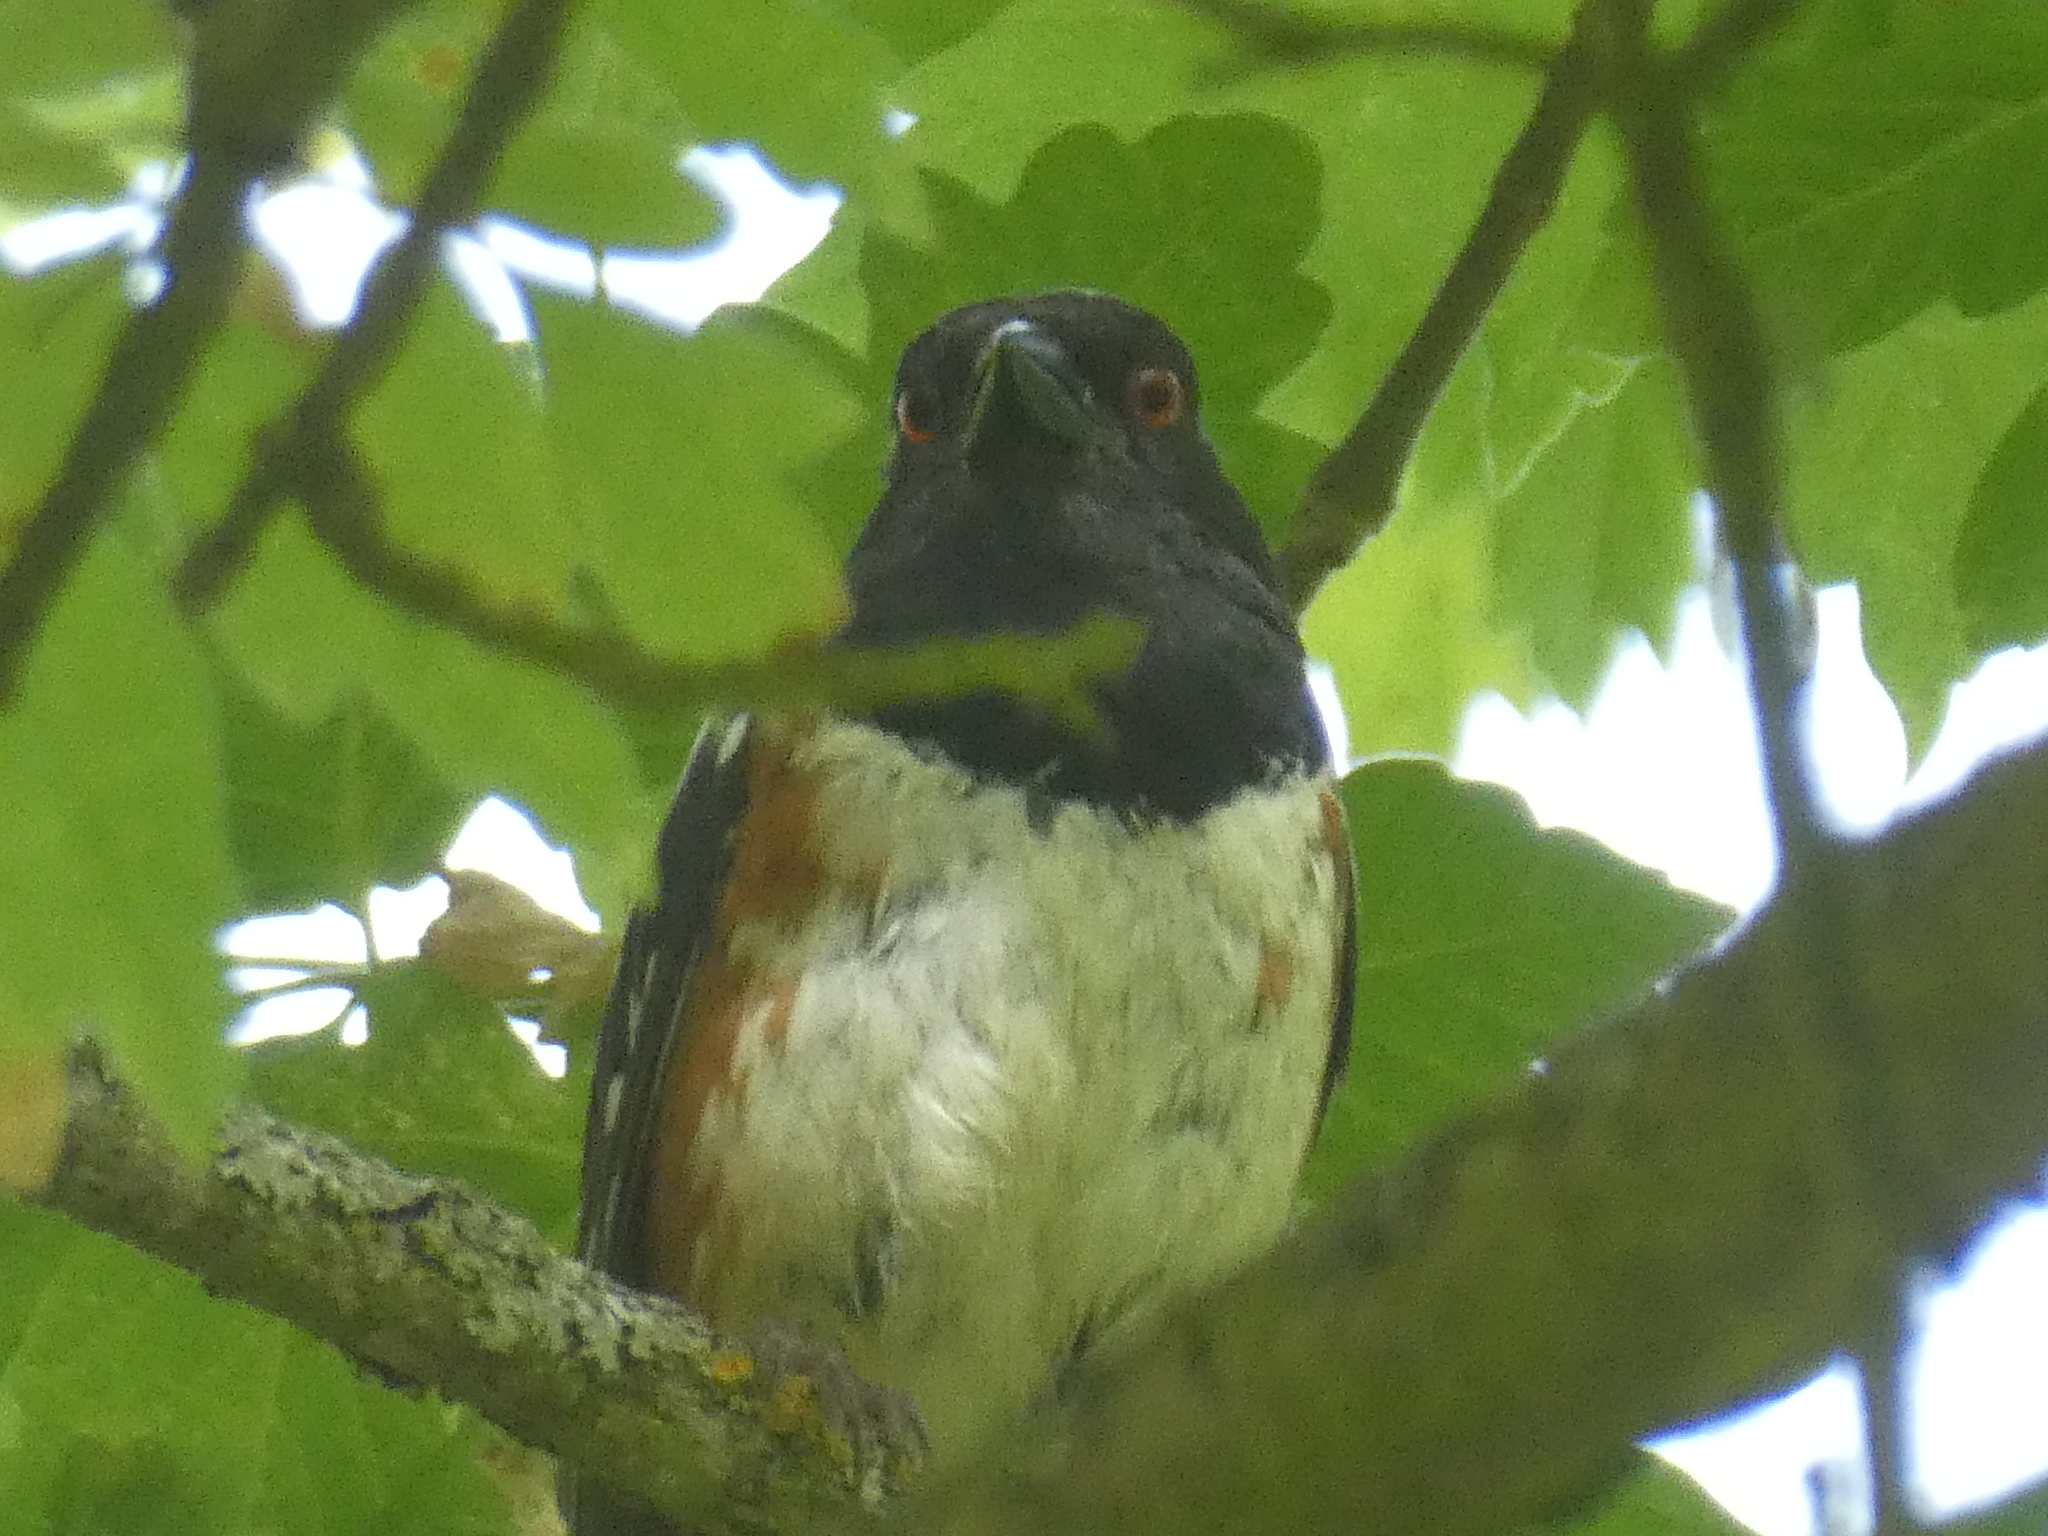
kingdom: Animalia
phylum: Chordata
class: Aves
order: Passeriformes
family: Passerellidae
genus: Pipilo
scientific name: Pipilo maculatus
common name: Spotted towhee
